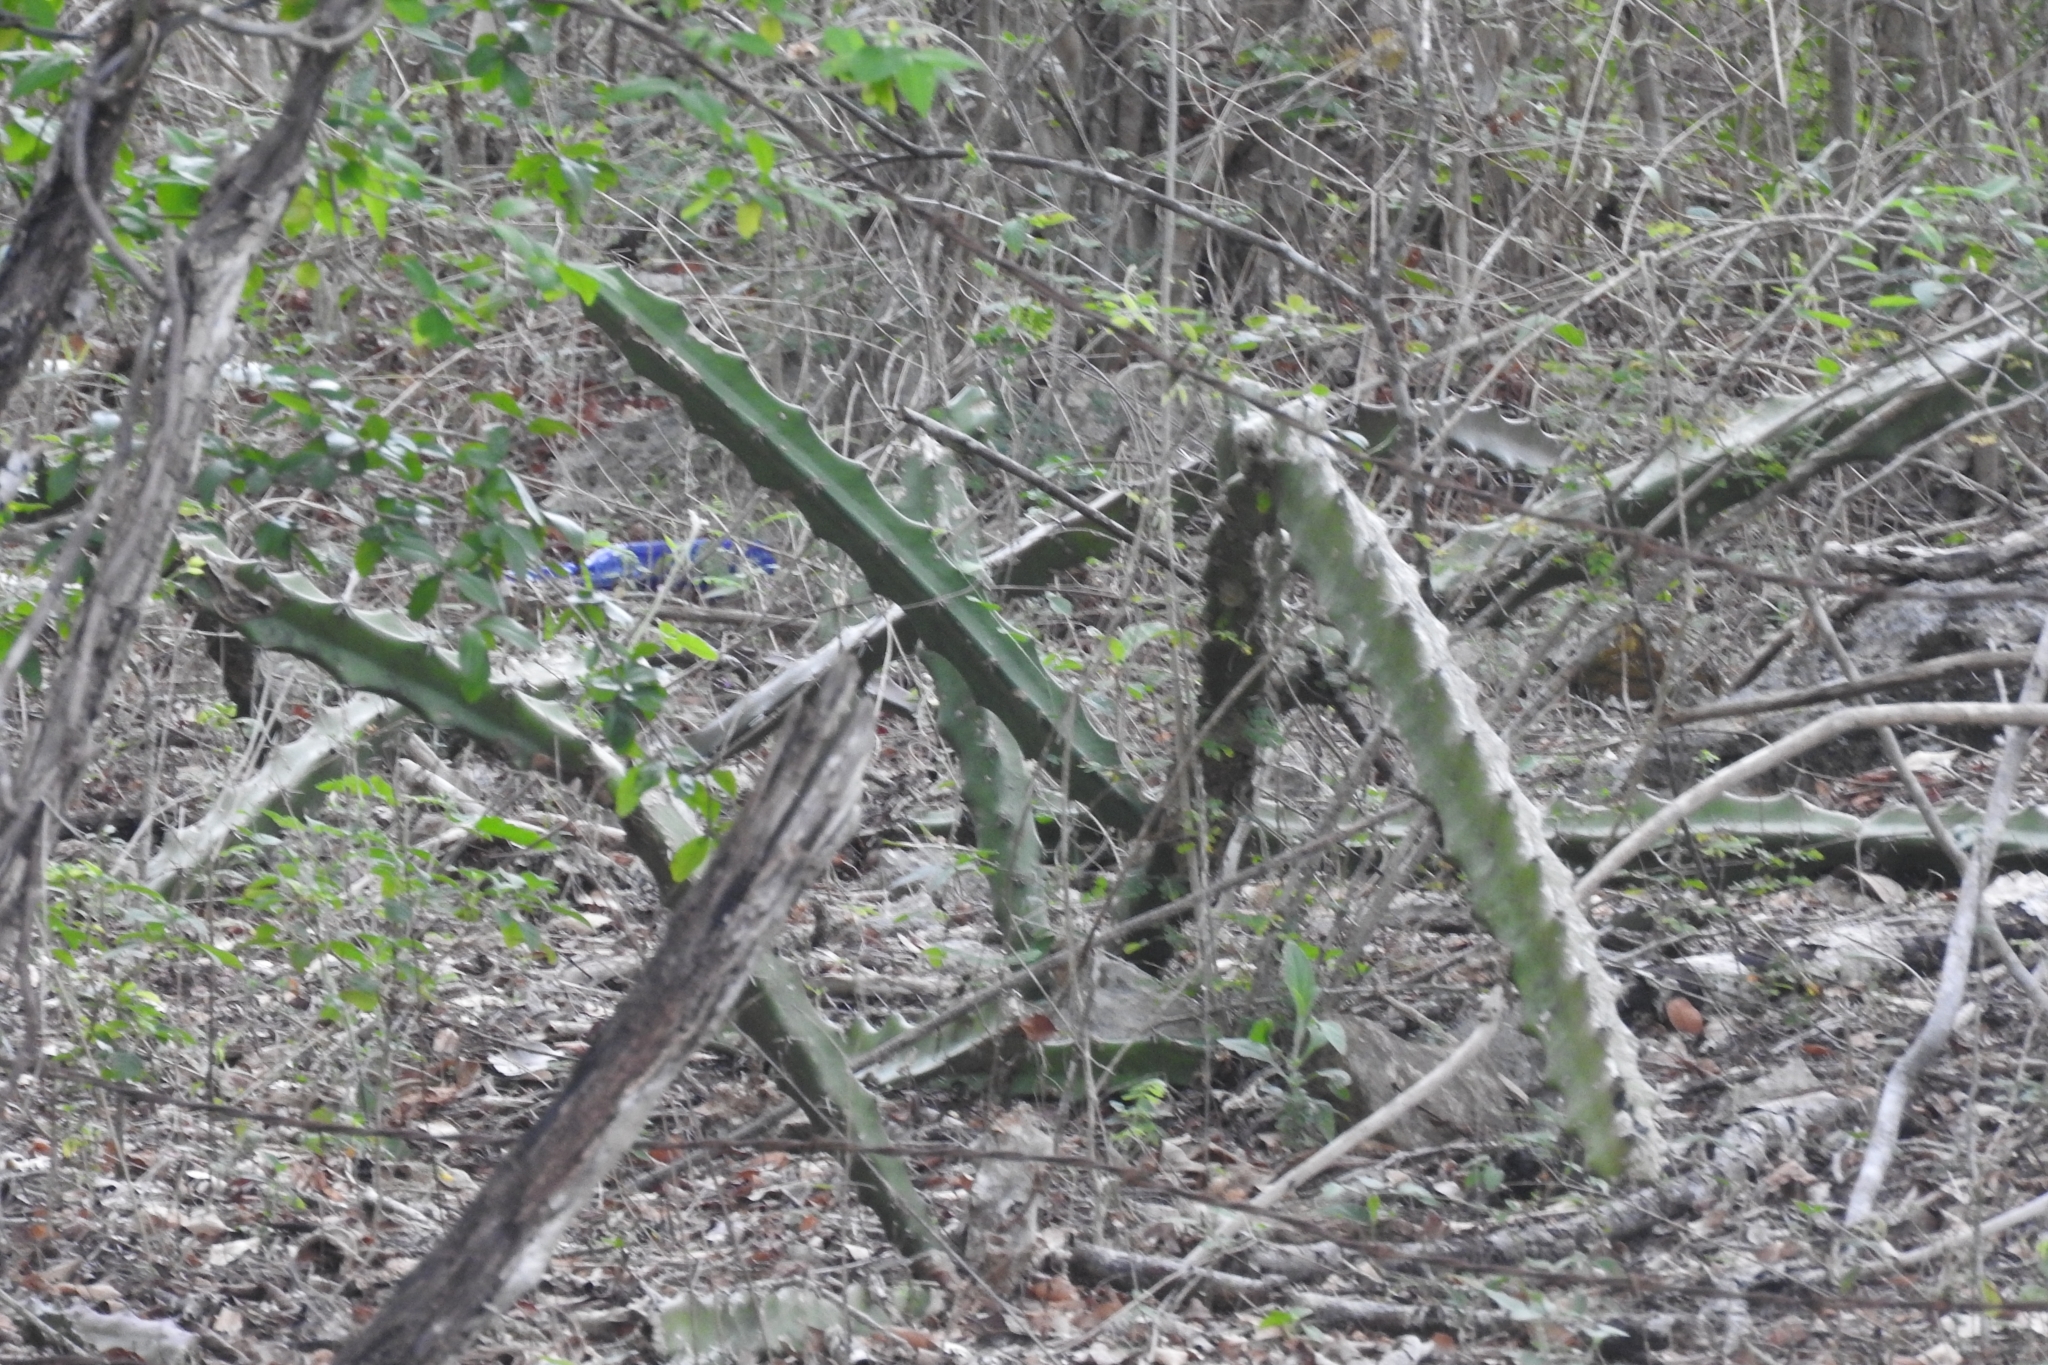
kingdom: Plantae
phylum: Tracheophyta
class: Magnoliopsida
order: Caryophyllales
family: Cactaceae
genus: Acanthocereus
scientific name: Acanthocereus tetragonus
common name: Triangle cactus
